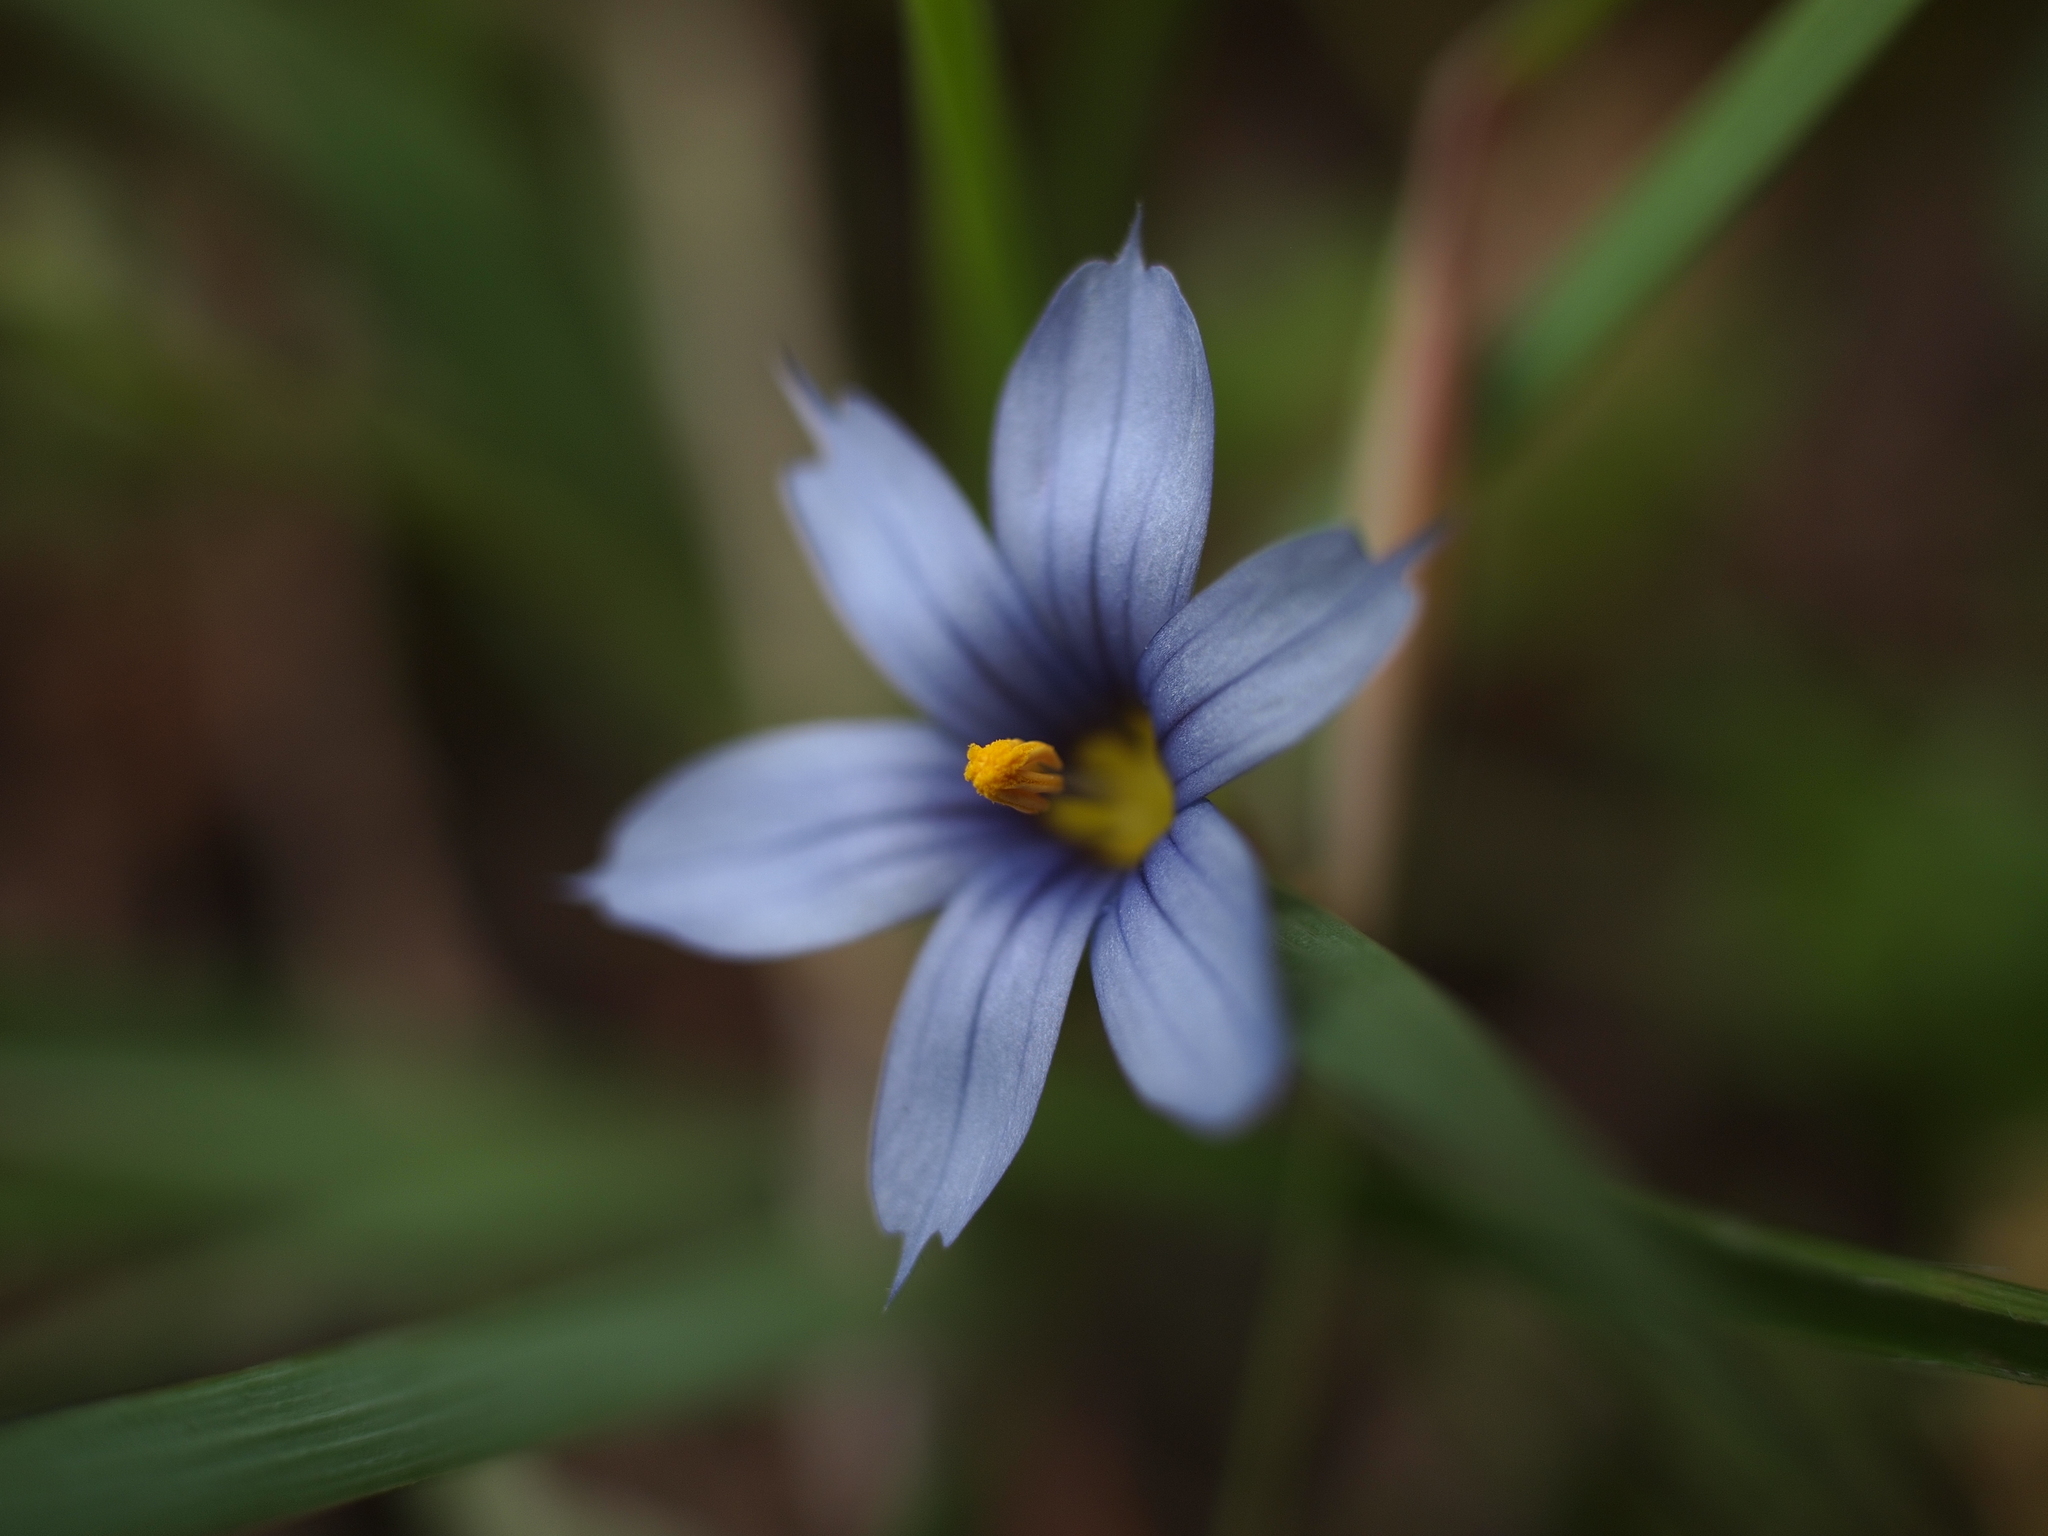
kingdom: Plantae
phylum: Tracheophyta
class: Liliopsida
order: Asparagales
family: Iridaceae
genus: Sisyrinchium
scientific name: Sisyrinchium idahoense
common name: Idaho blue-eyed-grass
